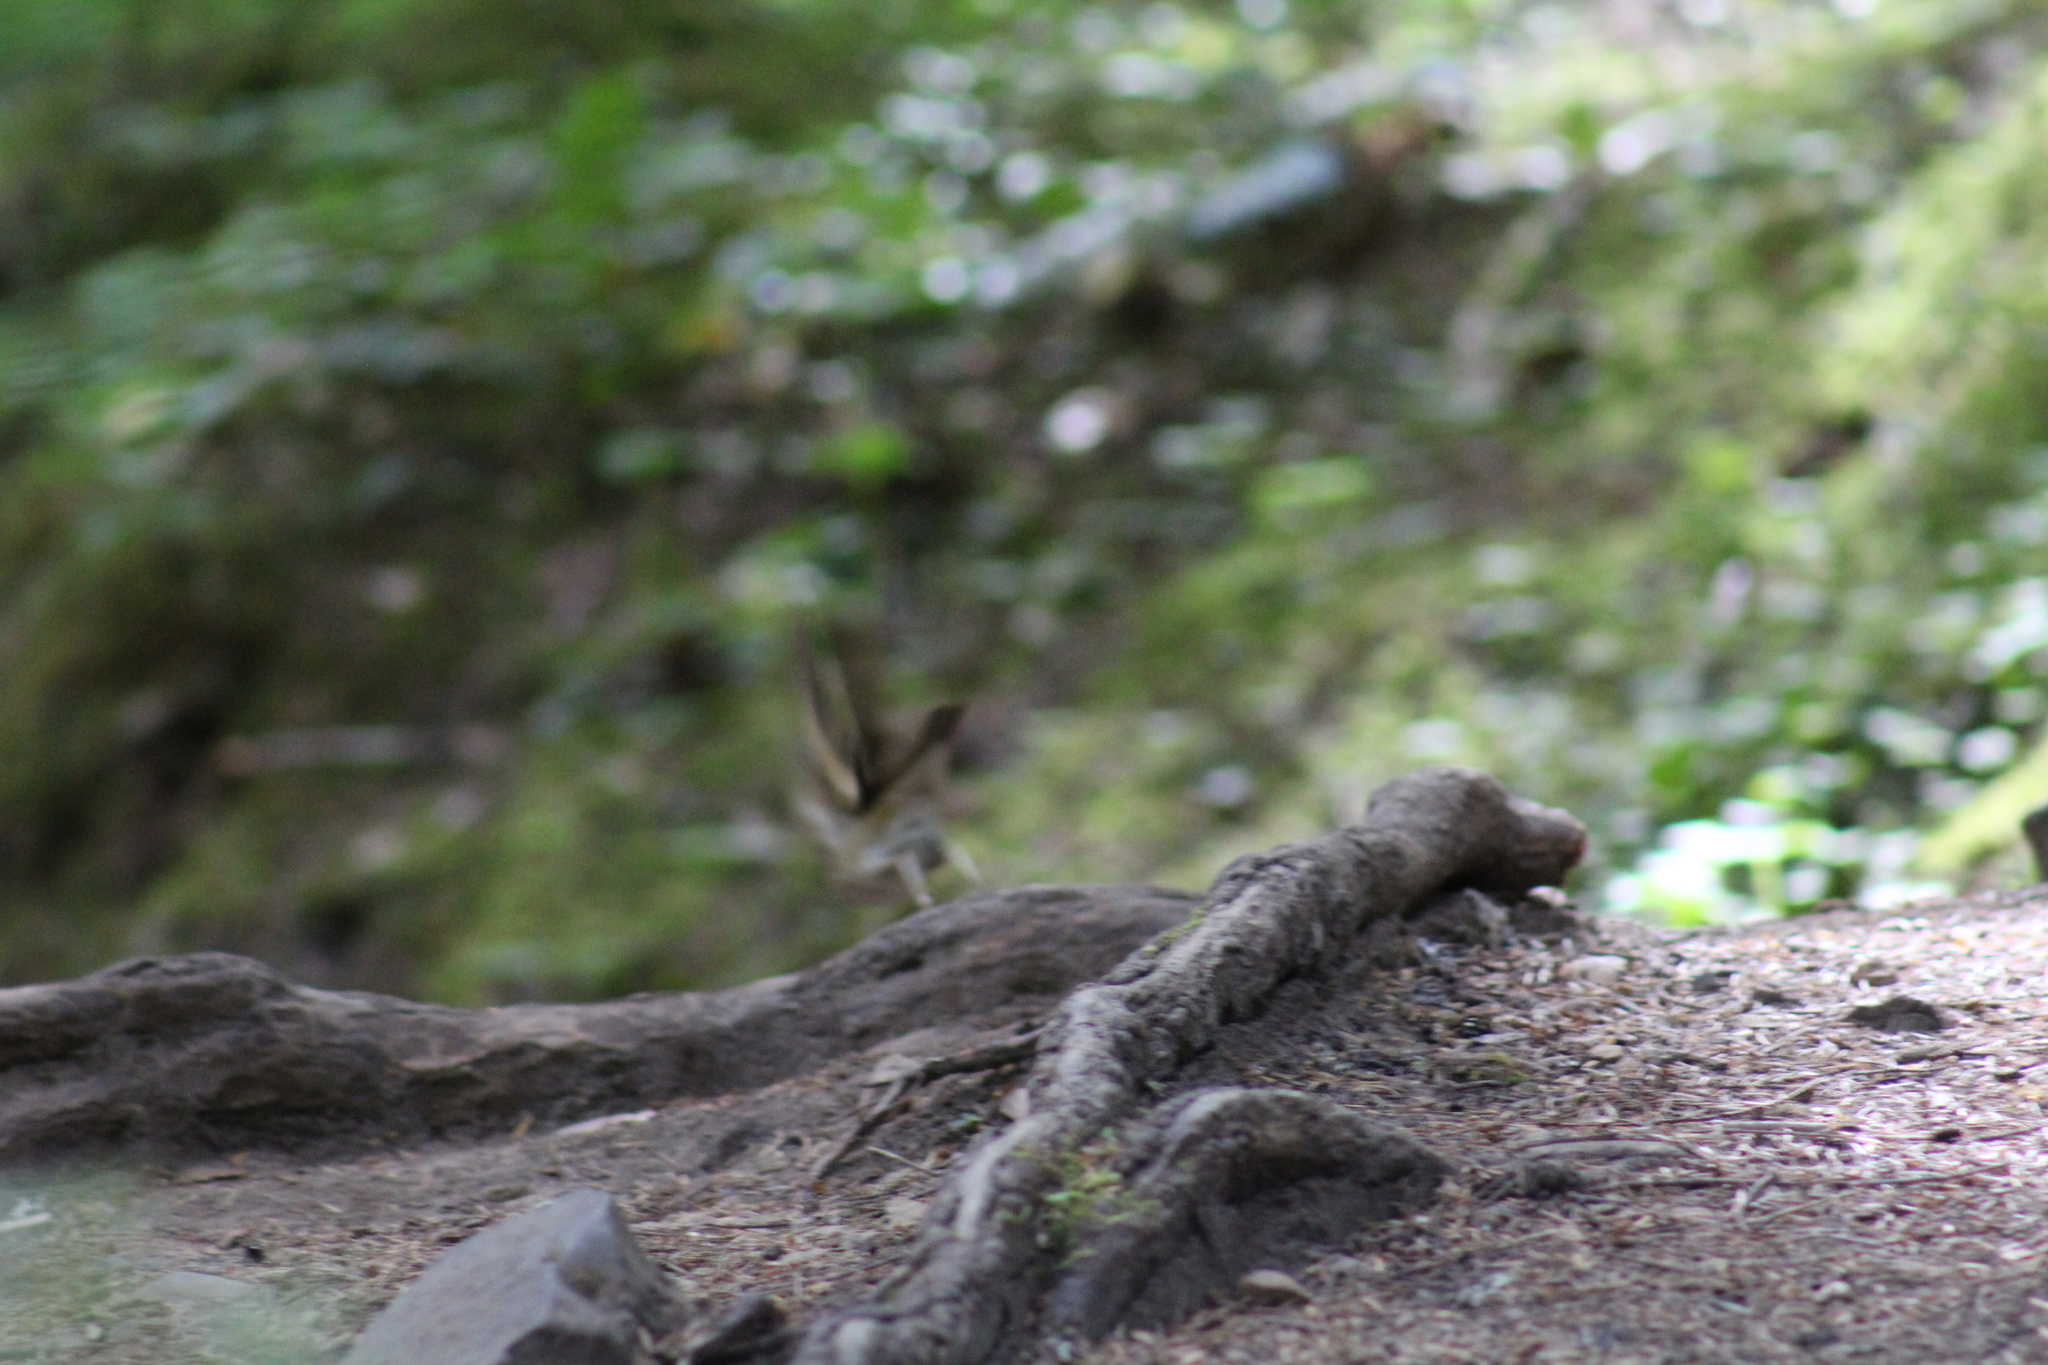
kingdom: Animalia
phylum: Chordata
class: Aves
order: Passeriformes
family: Turdidae
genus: Ixoreus
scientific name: Ixoreus naevius
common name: Varied thrush
